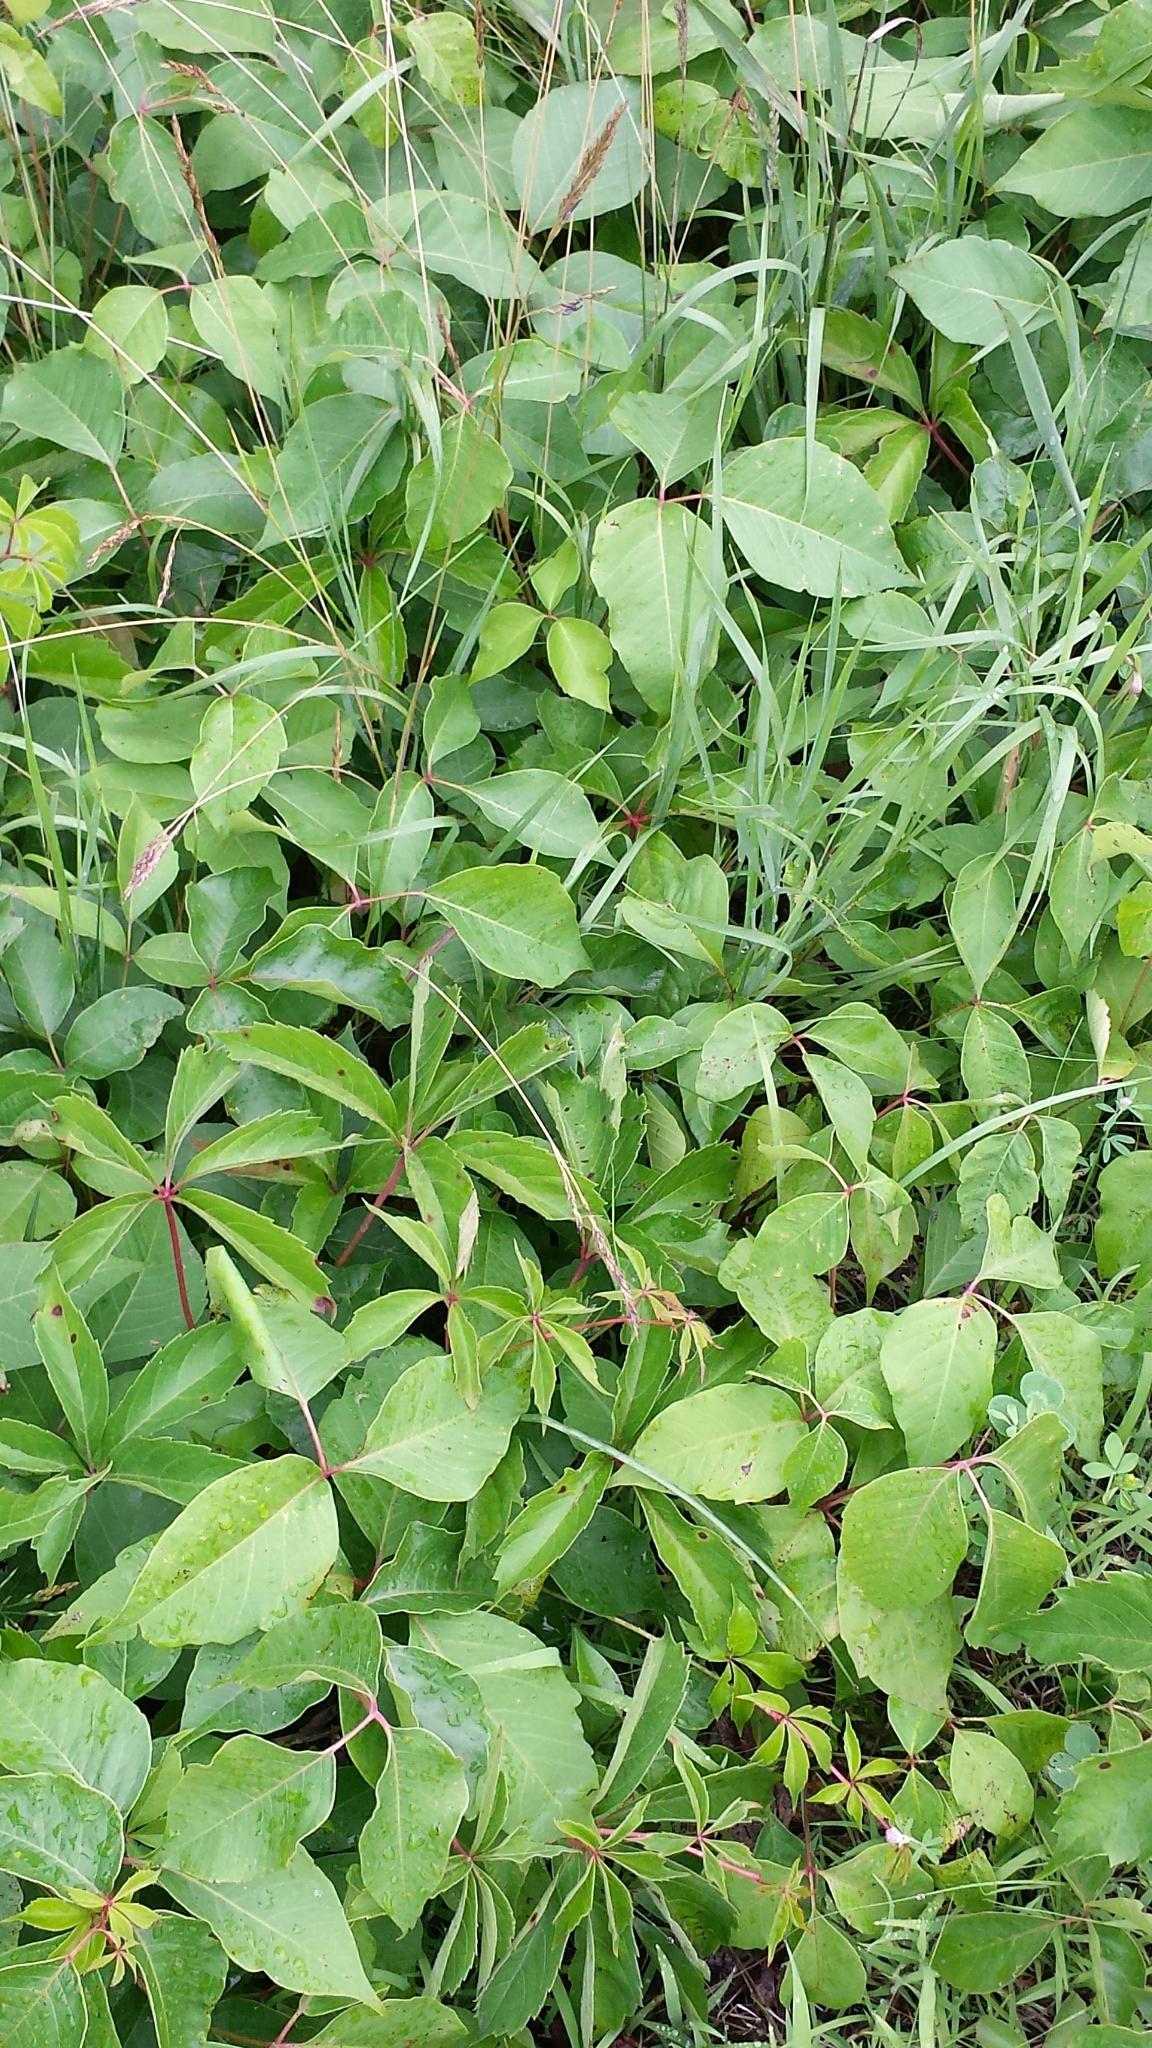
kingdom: Plantae
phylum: Tracheophyta
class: Magnoliopsida
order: Sapindales
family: Anacardiaceae
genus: Toxicodendron
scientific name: Toxicodendron radicans
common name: Poison ivy
